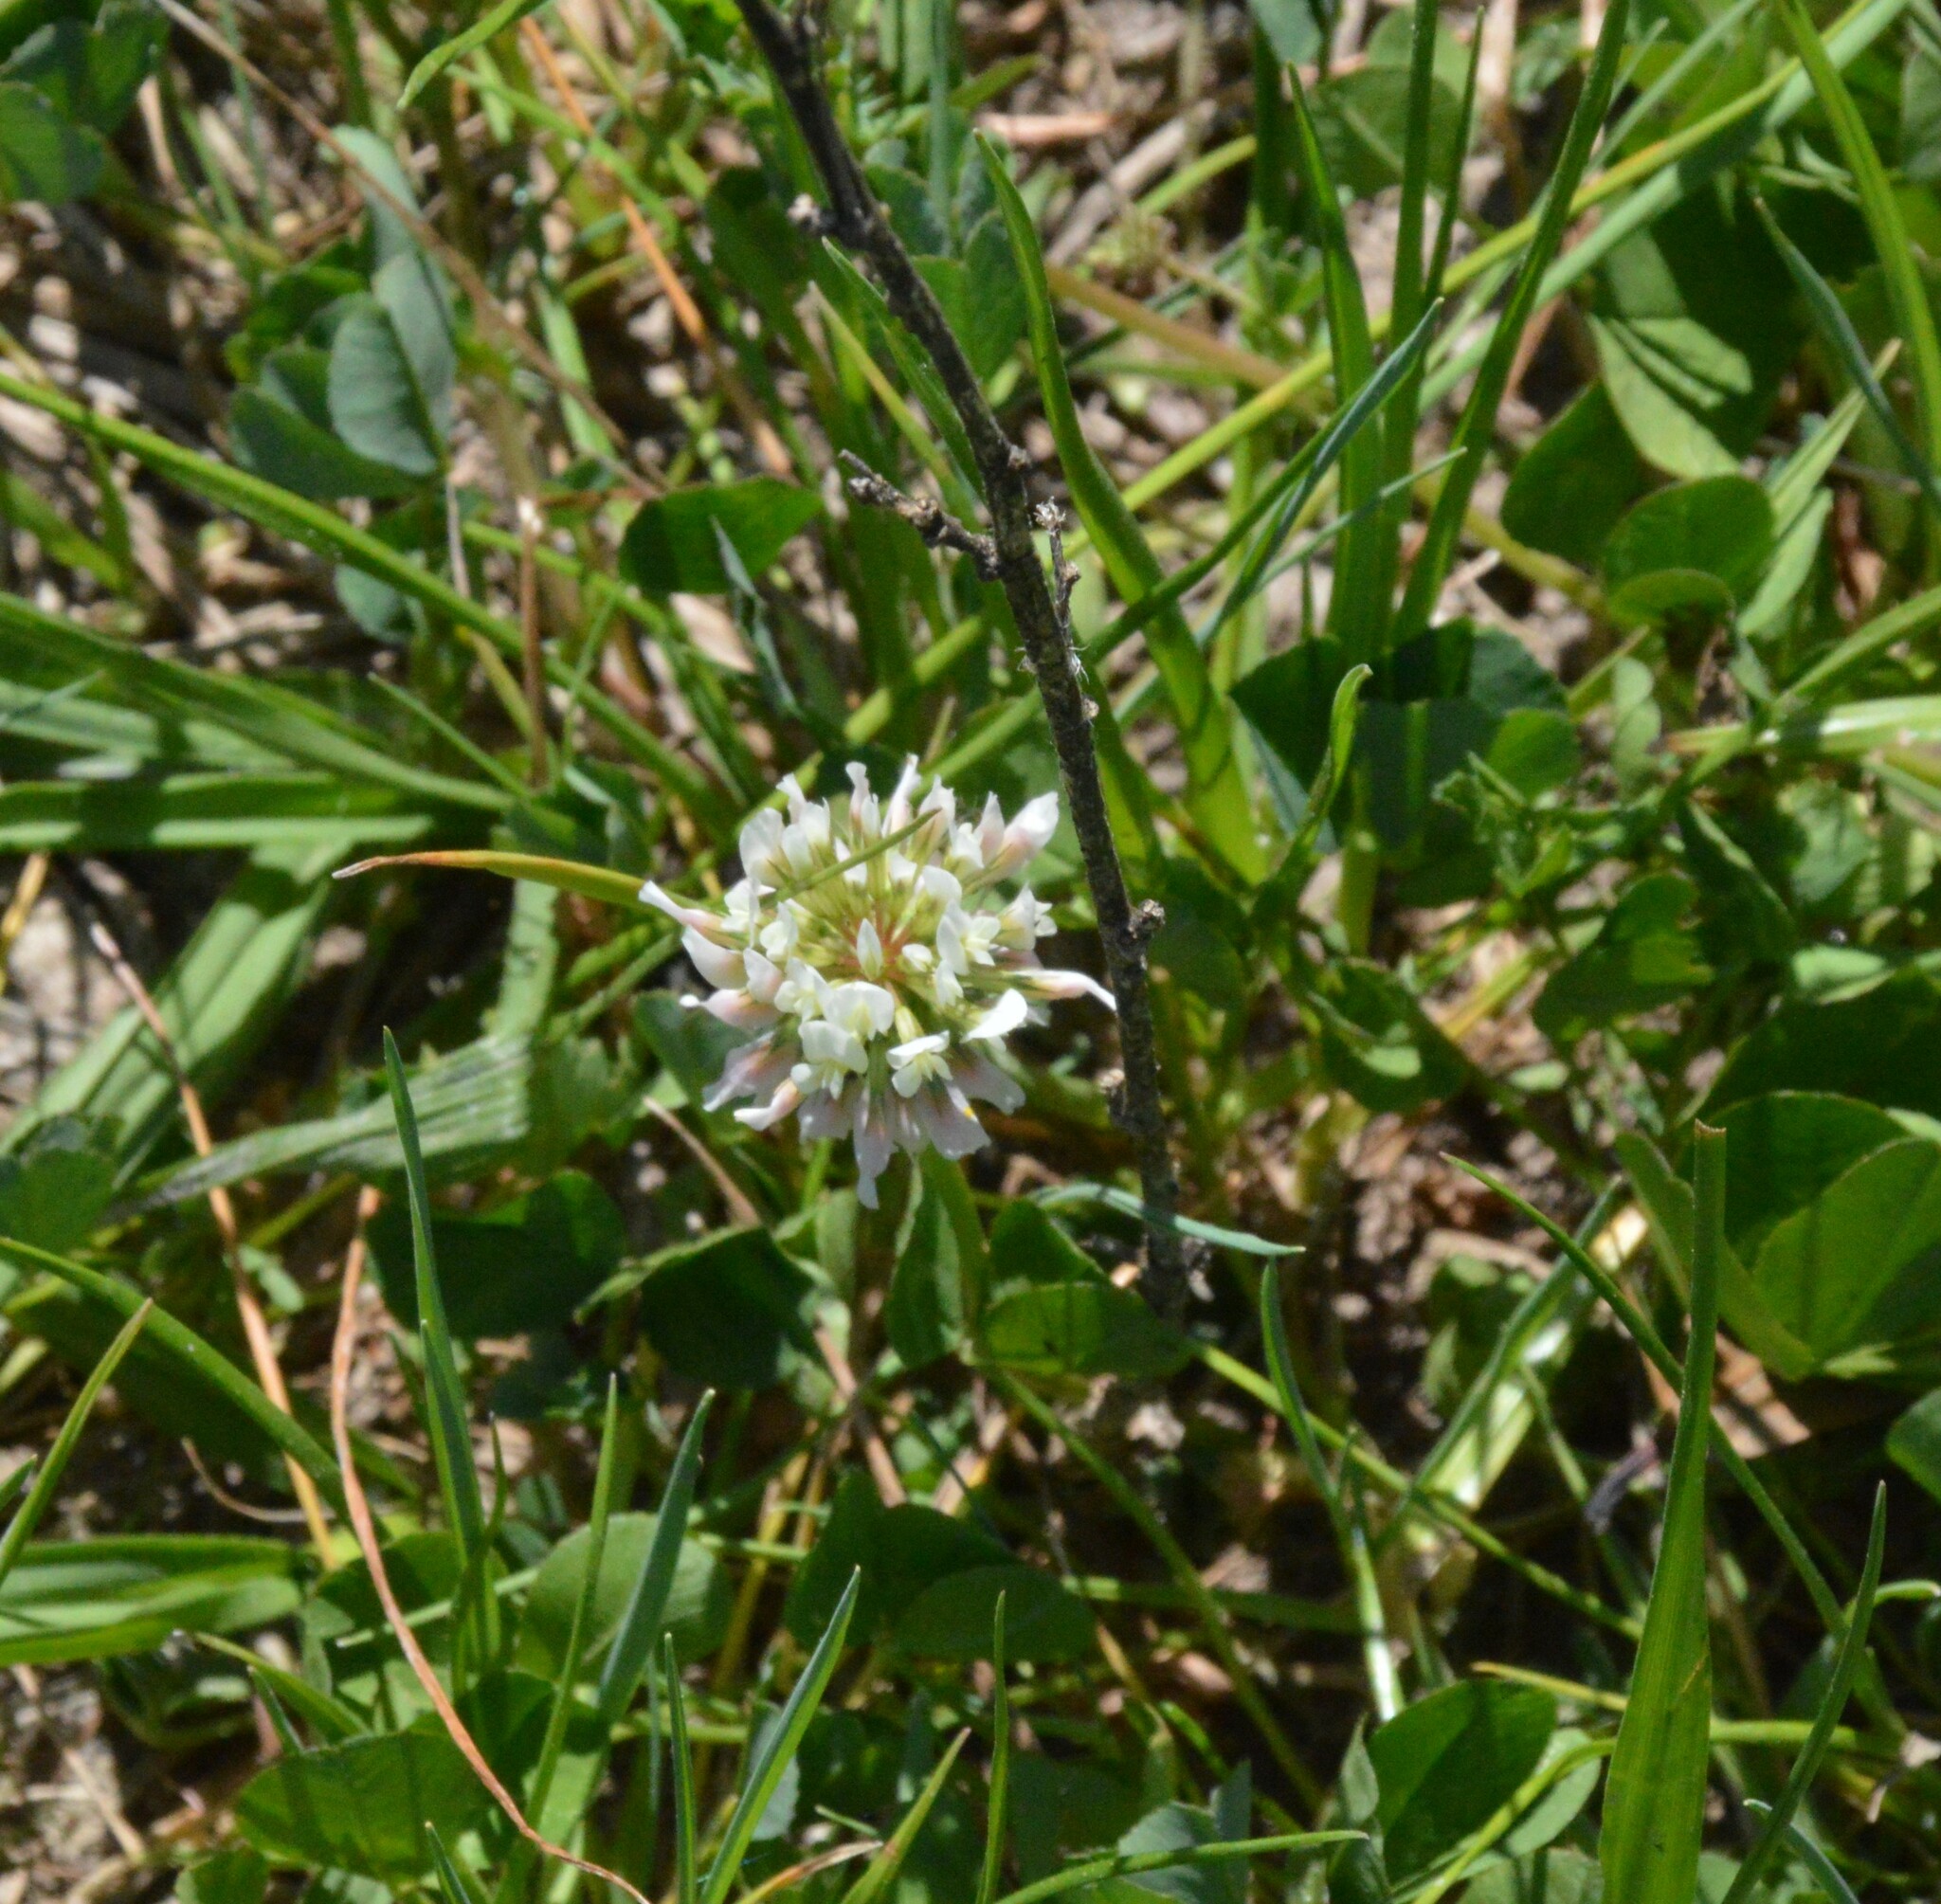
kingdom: Plantae
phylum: Tracheophyta
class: Magnoliopsida
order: Fabales
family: Fabaceae
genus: Trifolium
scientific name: Trifolium repens
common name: White clover
